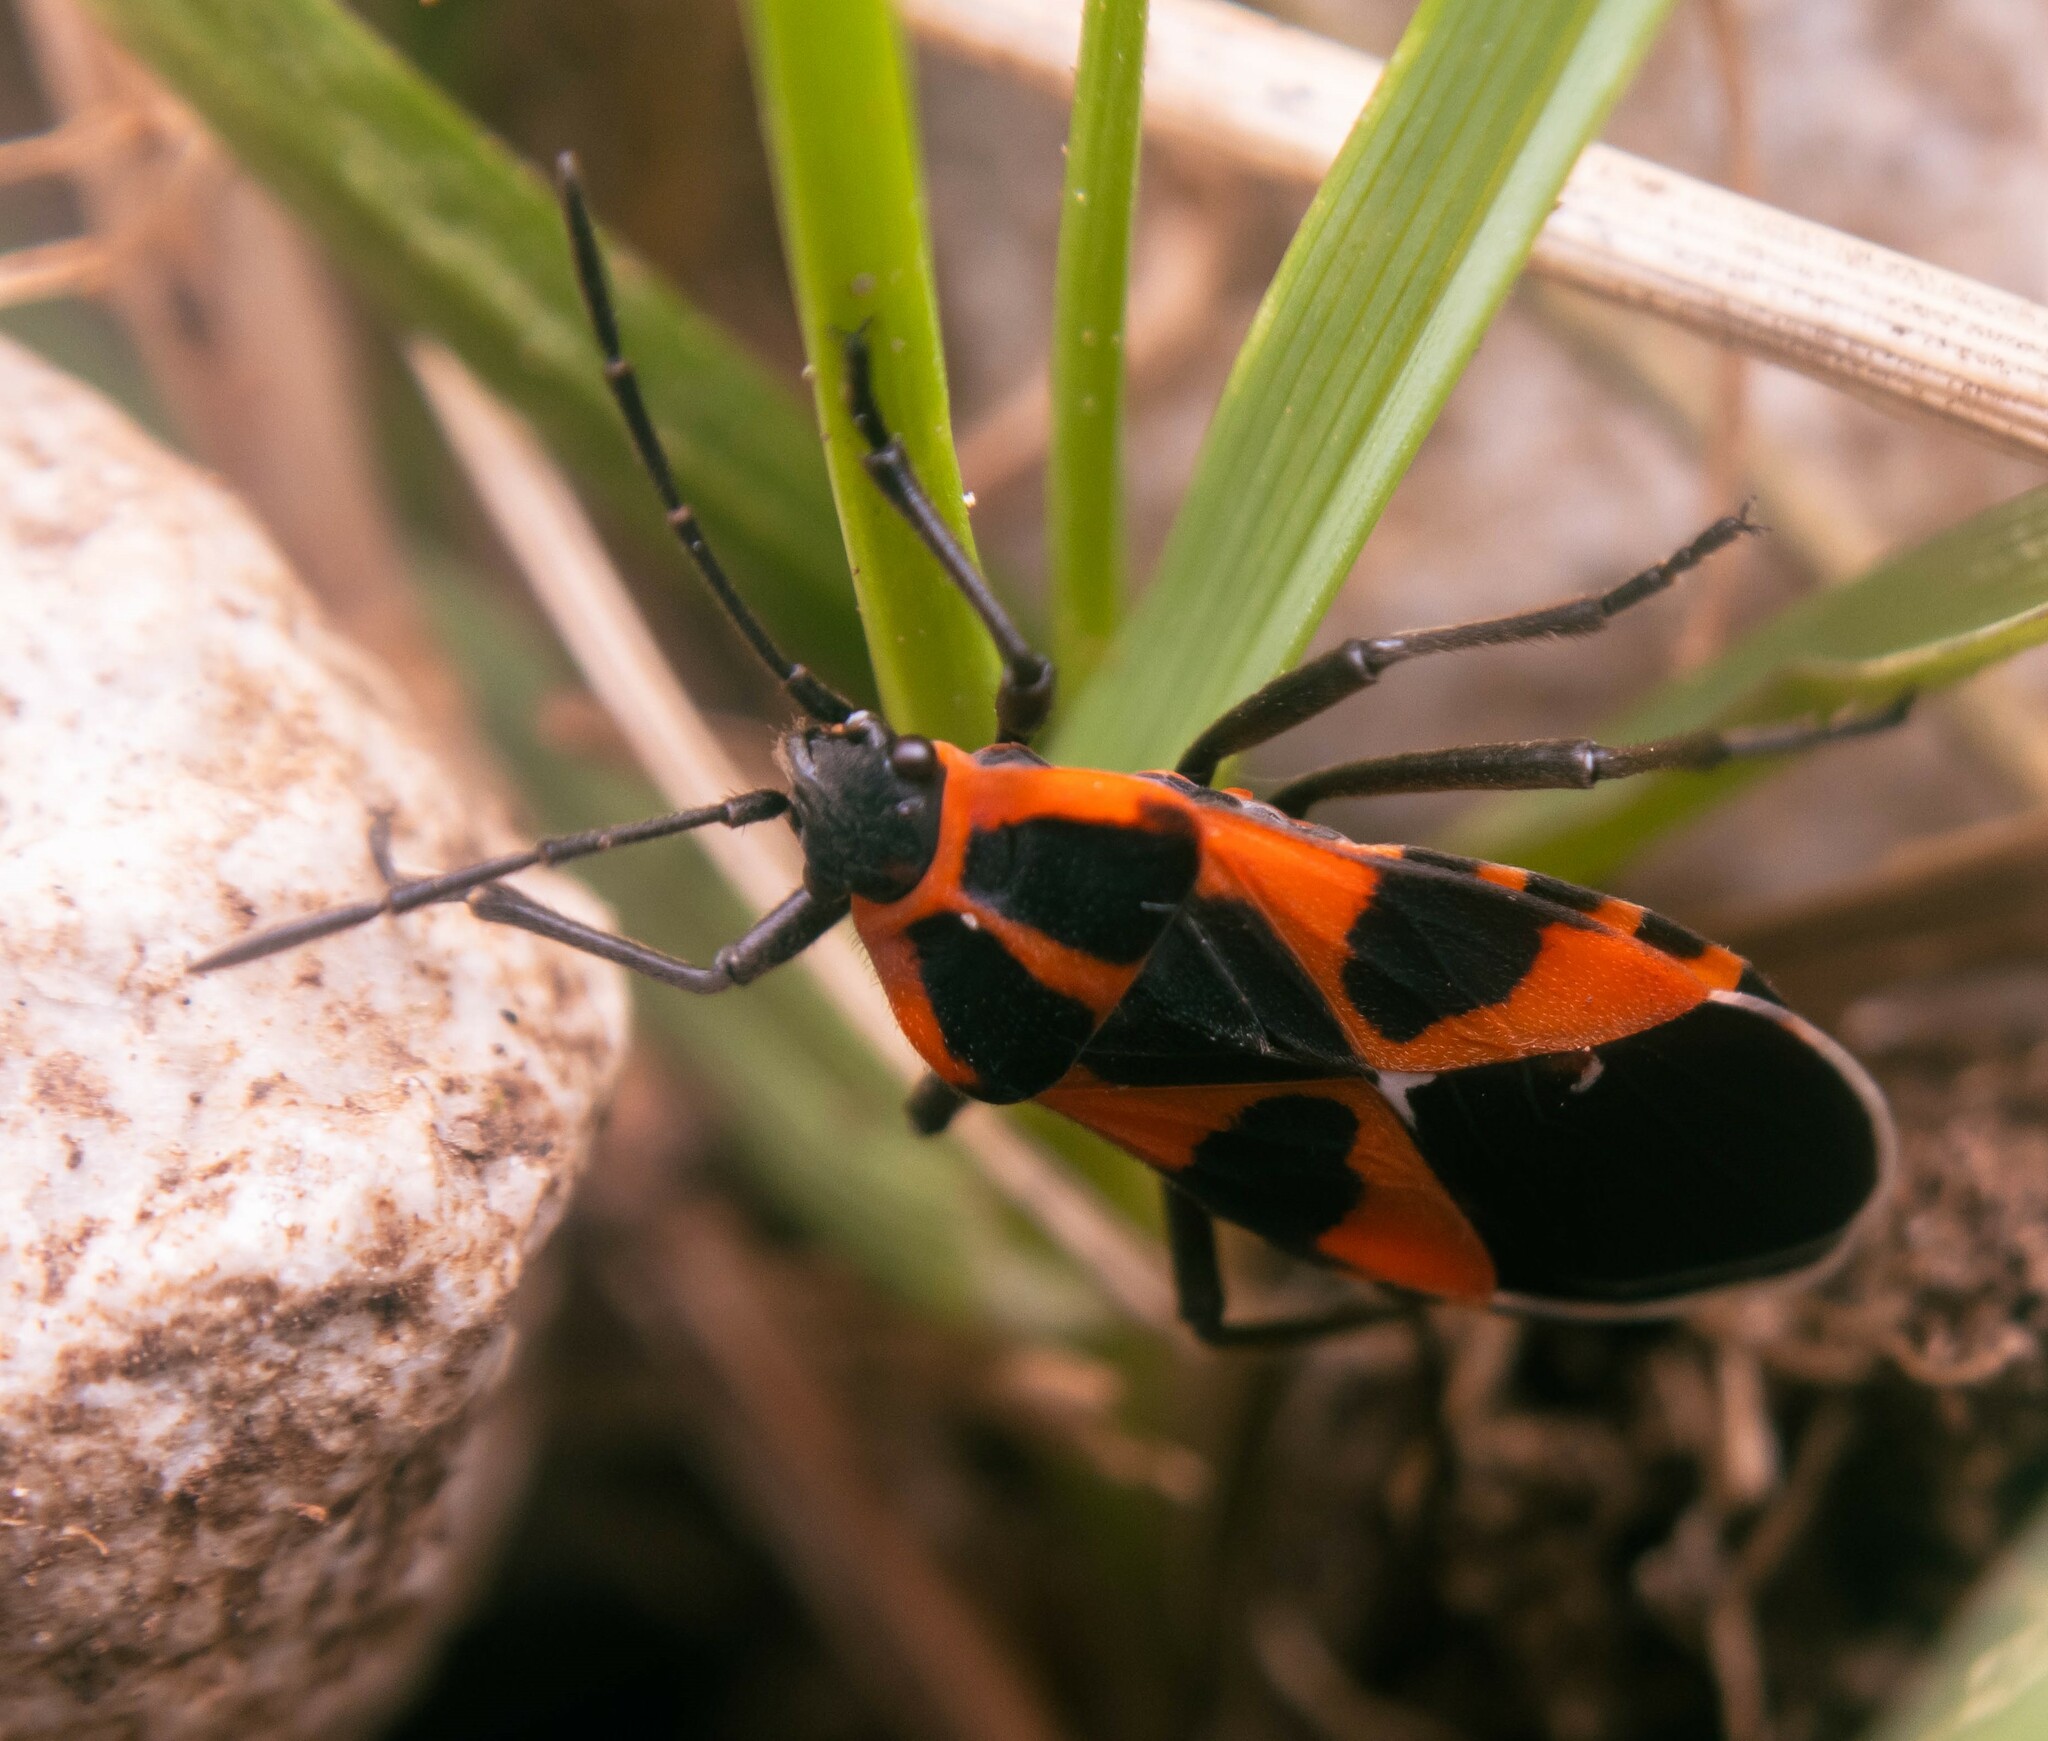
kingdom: Animalia
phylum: Arthropoda
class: Insecta
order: Hemiptera
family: Lygaeidae
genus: Tropidothorax
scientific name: Tropidothorax leucopterus
